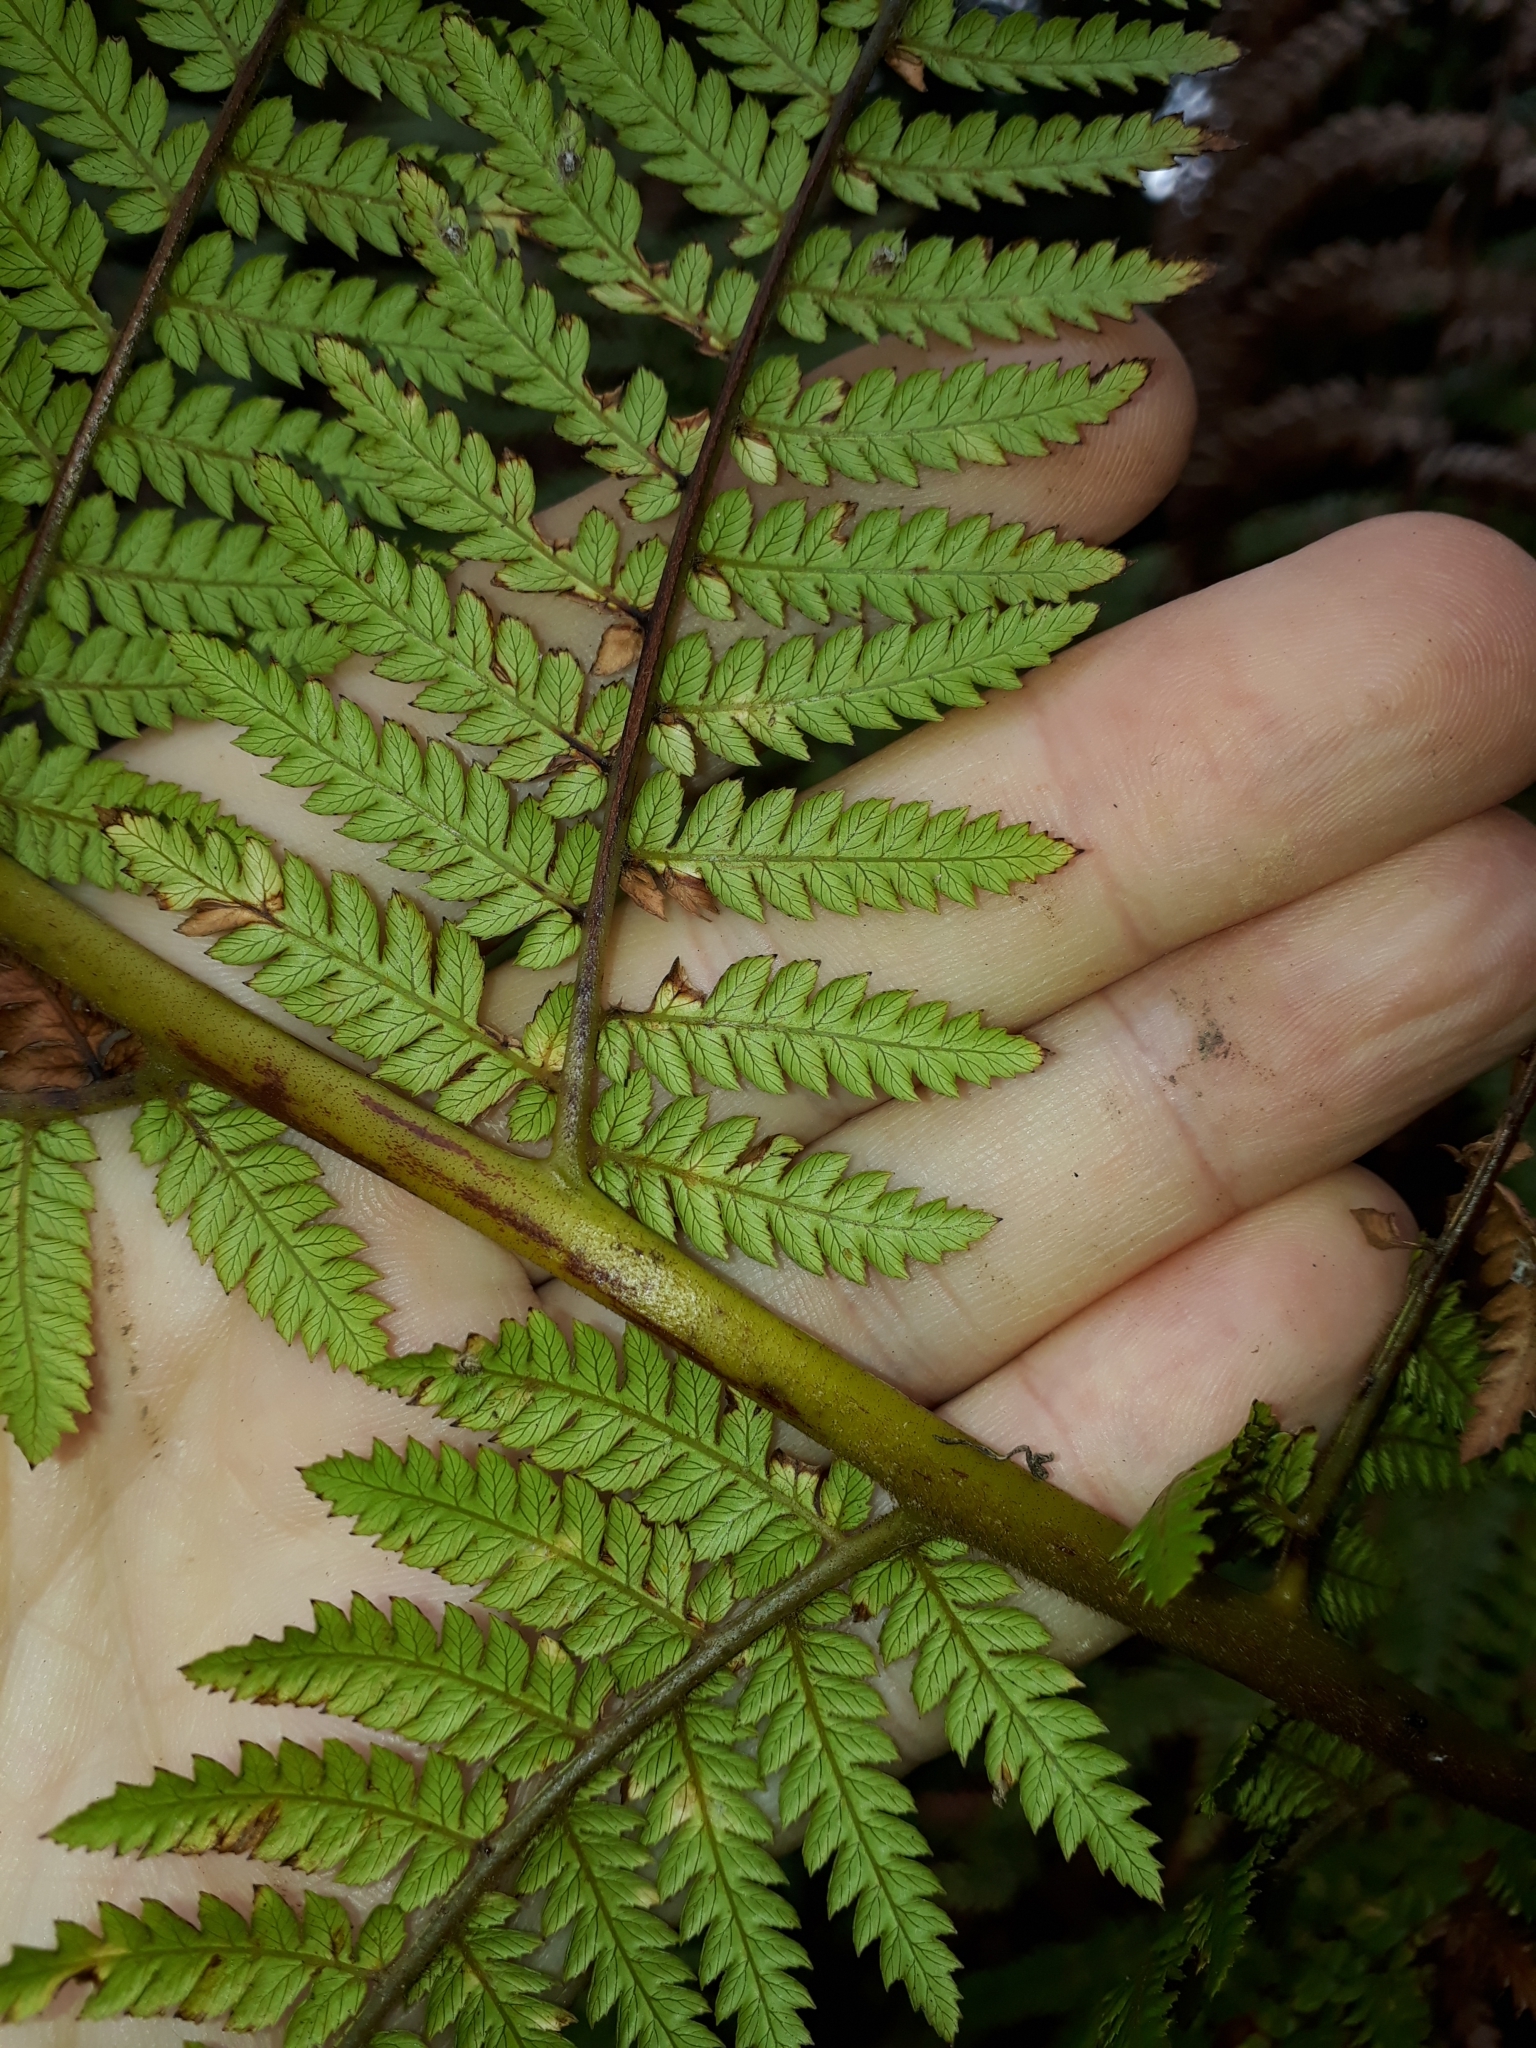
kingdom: Plantae
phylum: Tracheophyta
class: Polypodiopsida
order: Cyatheales
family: Dicksoniaceae
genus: Dicksonia
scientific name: Dicksonia fibrosa
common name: Golden tree fern
